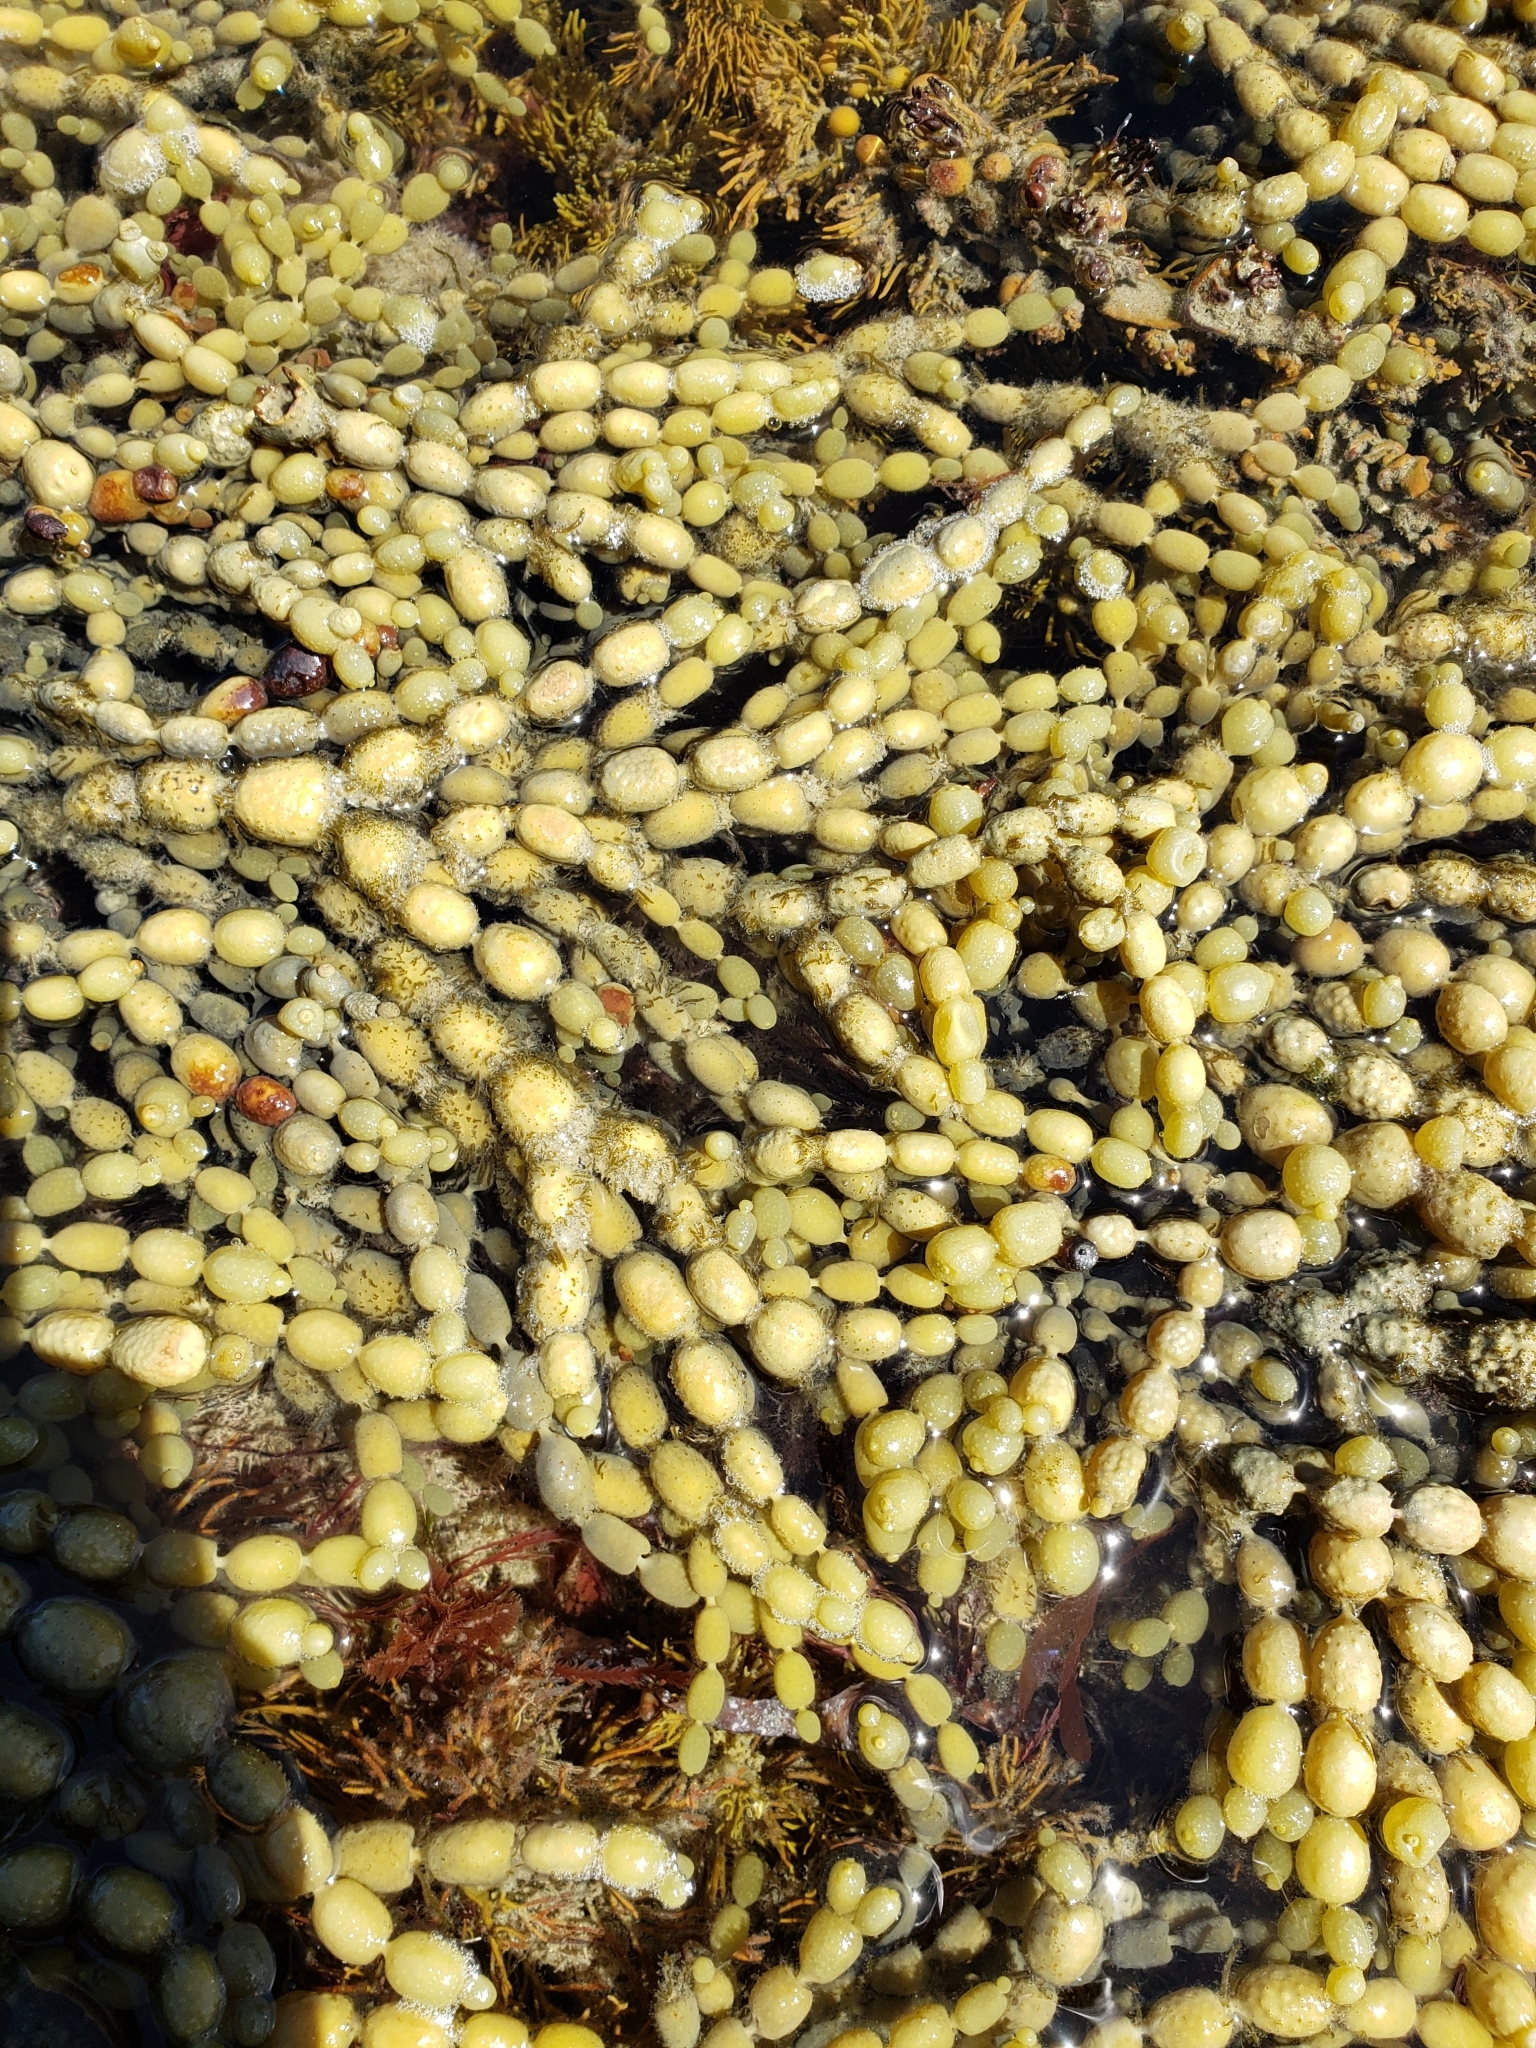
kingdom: Chromista
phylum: Ochrophyta
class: Phaeophyceae
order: Fucales
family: Hormosiraceae
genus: Hormosira
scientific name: Hormosira banksii
